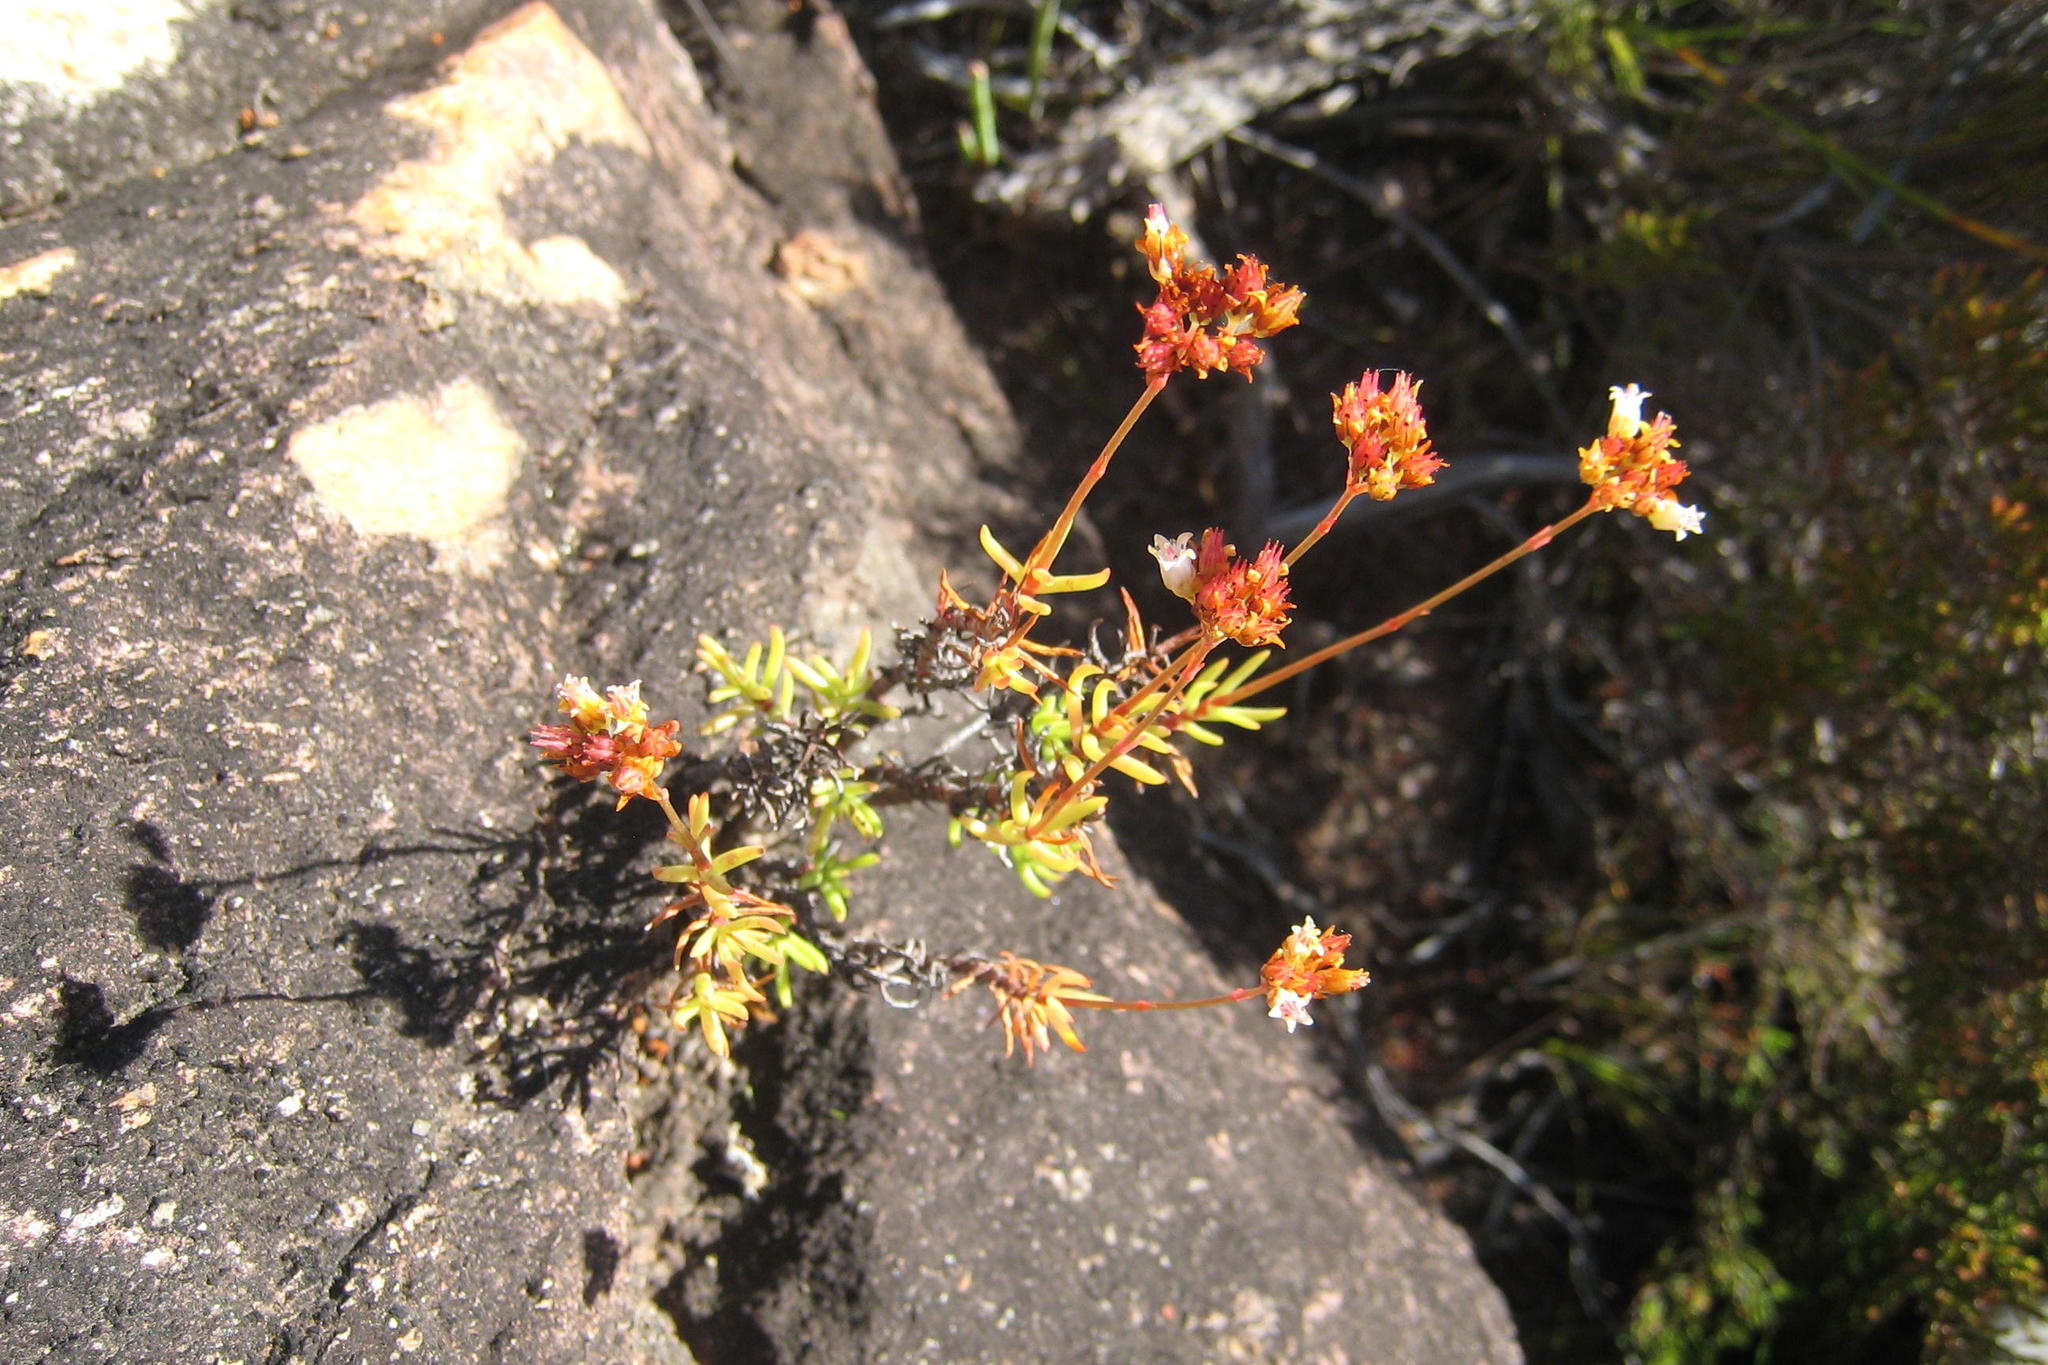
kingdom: Plantae
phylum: Tracheophyta
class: Magnoliopsida
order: Saxifragales
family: Crassulaceae
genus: Crassula
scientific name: Crassula tetragona
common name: Pygmyweed
